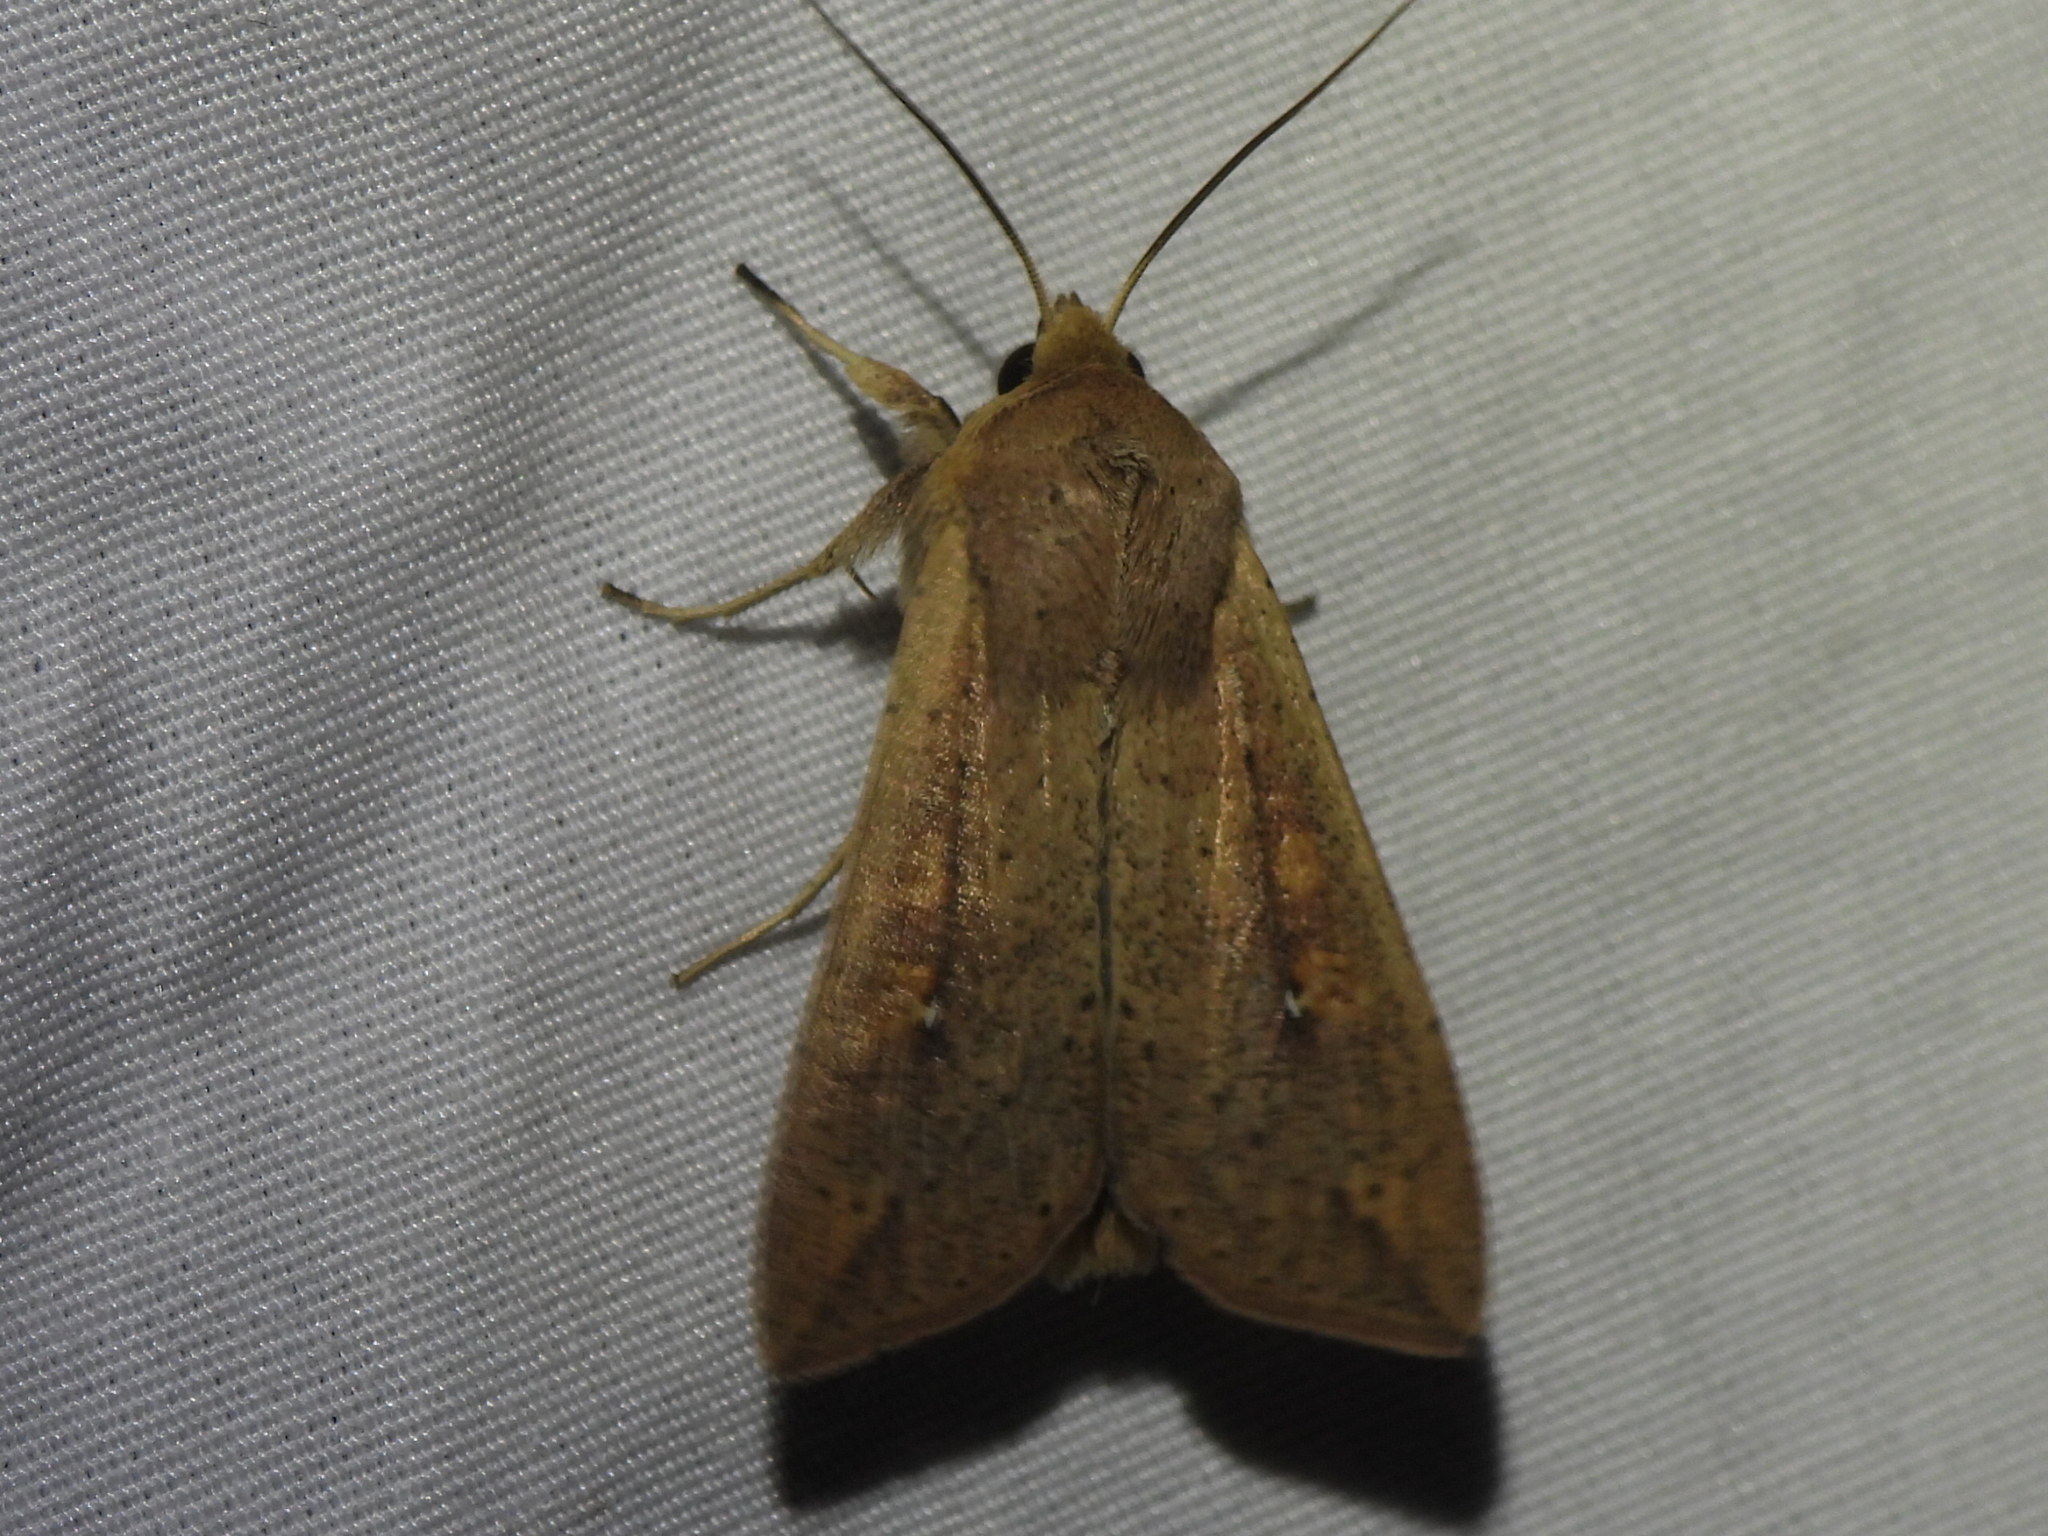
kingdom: Animalia
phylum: Arthropoda
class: Insecta
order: Lepidoptera
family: Noctuidae
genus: Mythimna
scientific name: Mythimna unipuncta
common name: White-speck
